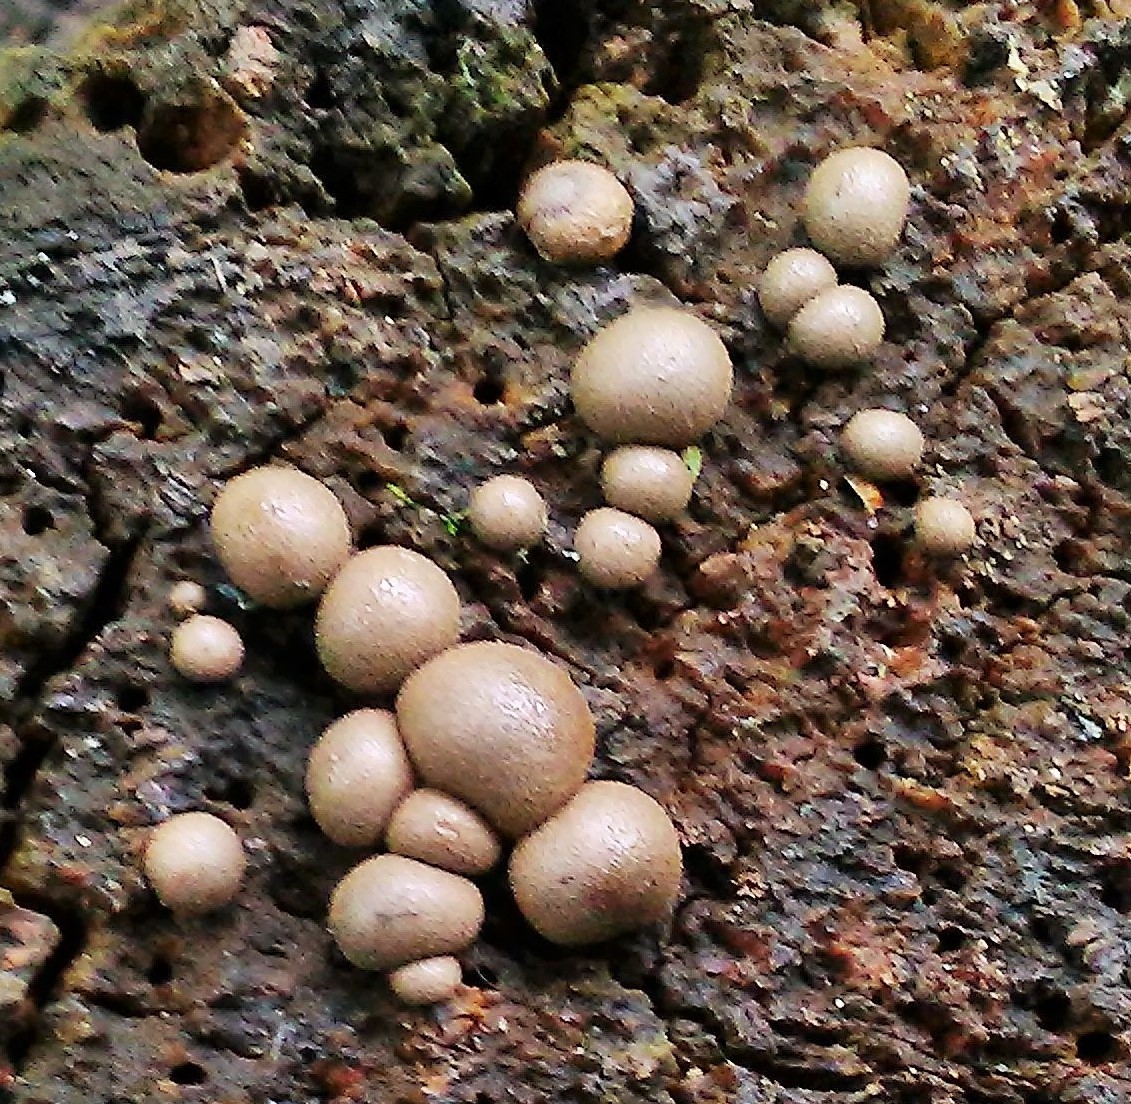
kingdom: Protozoa
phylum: Mycetozoa
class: Myxomycetes
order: Cribrariales
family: Tubiferaceae
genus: Lycogala
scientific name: Lycogala epidendrum
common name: Wolf's milk
